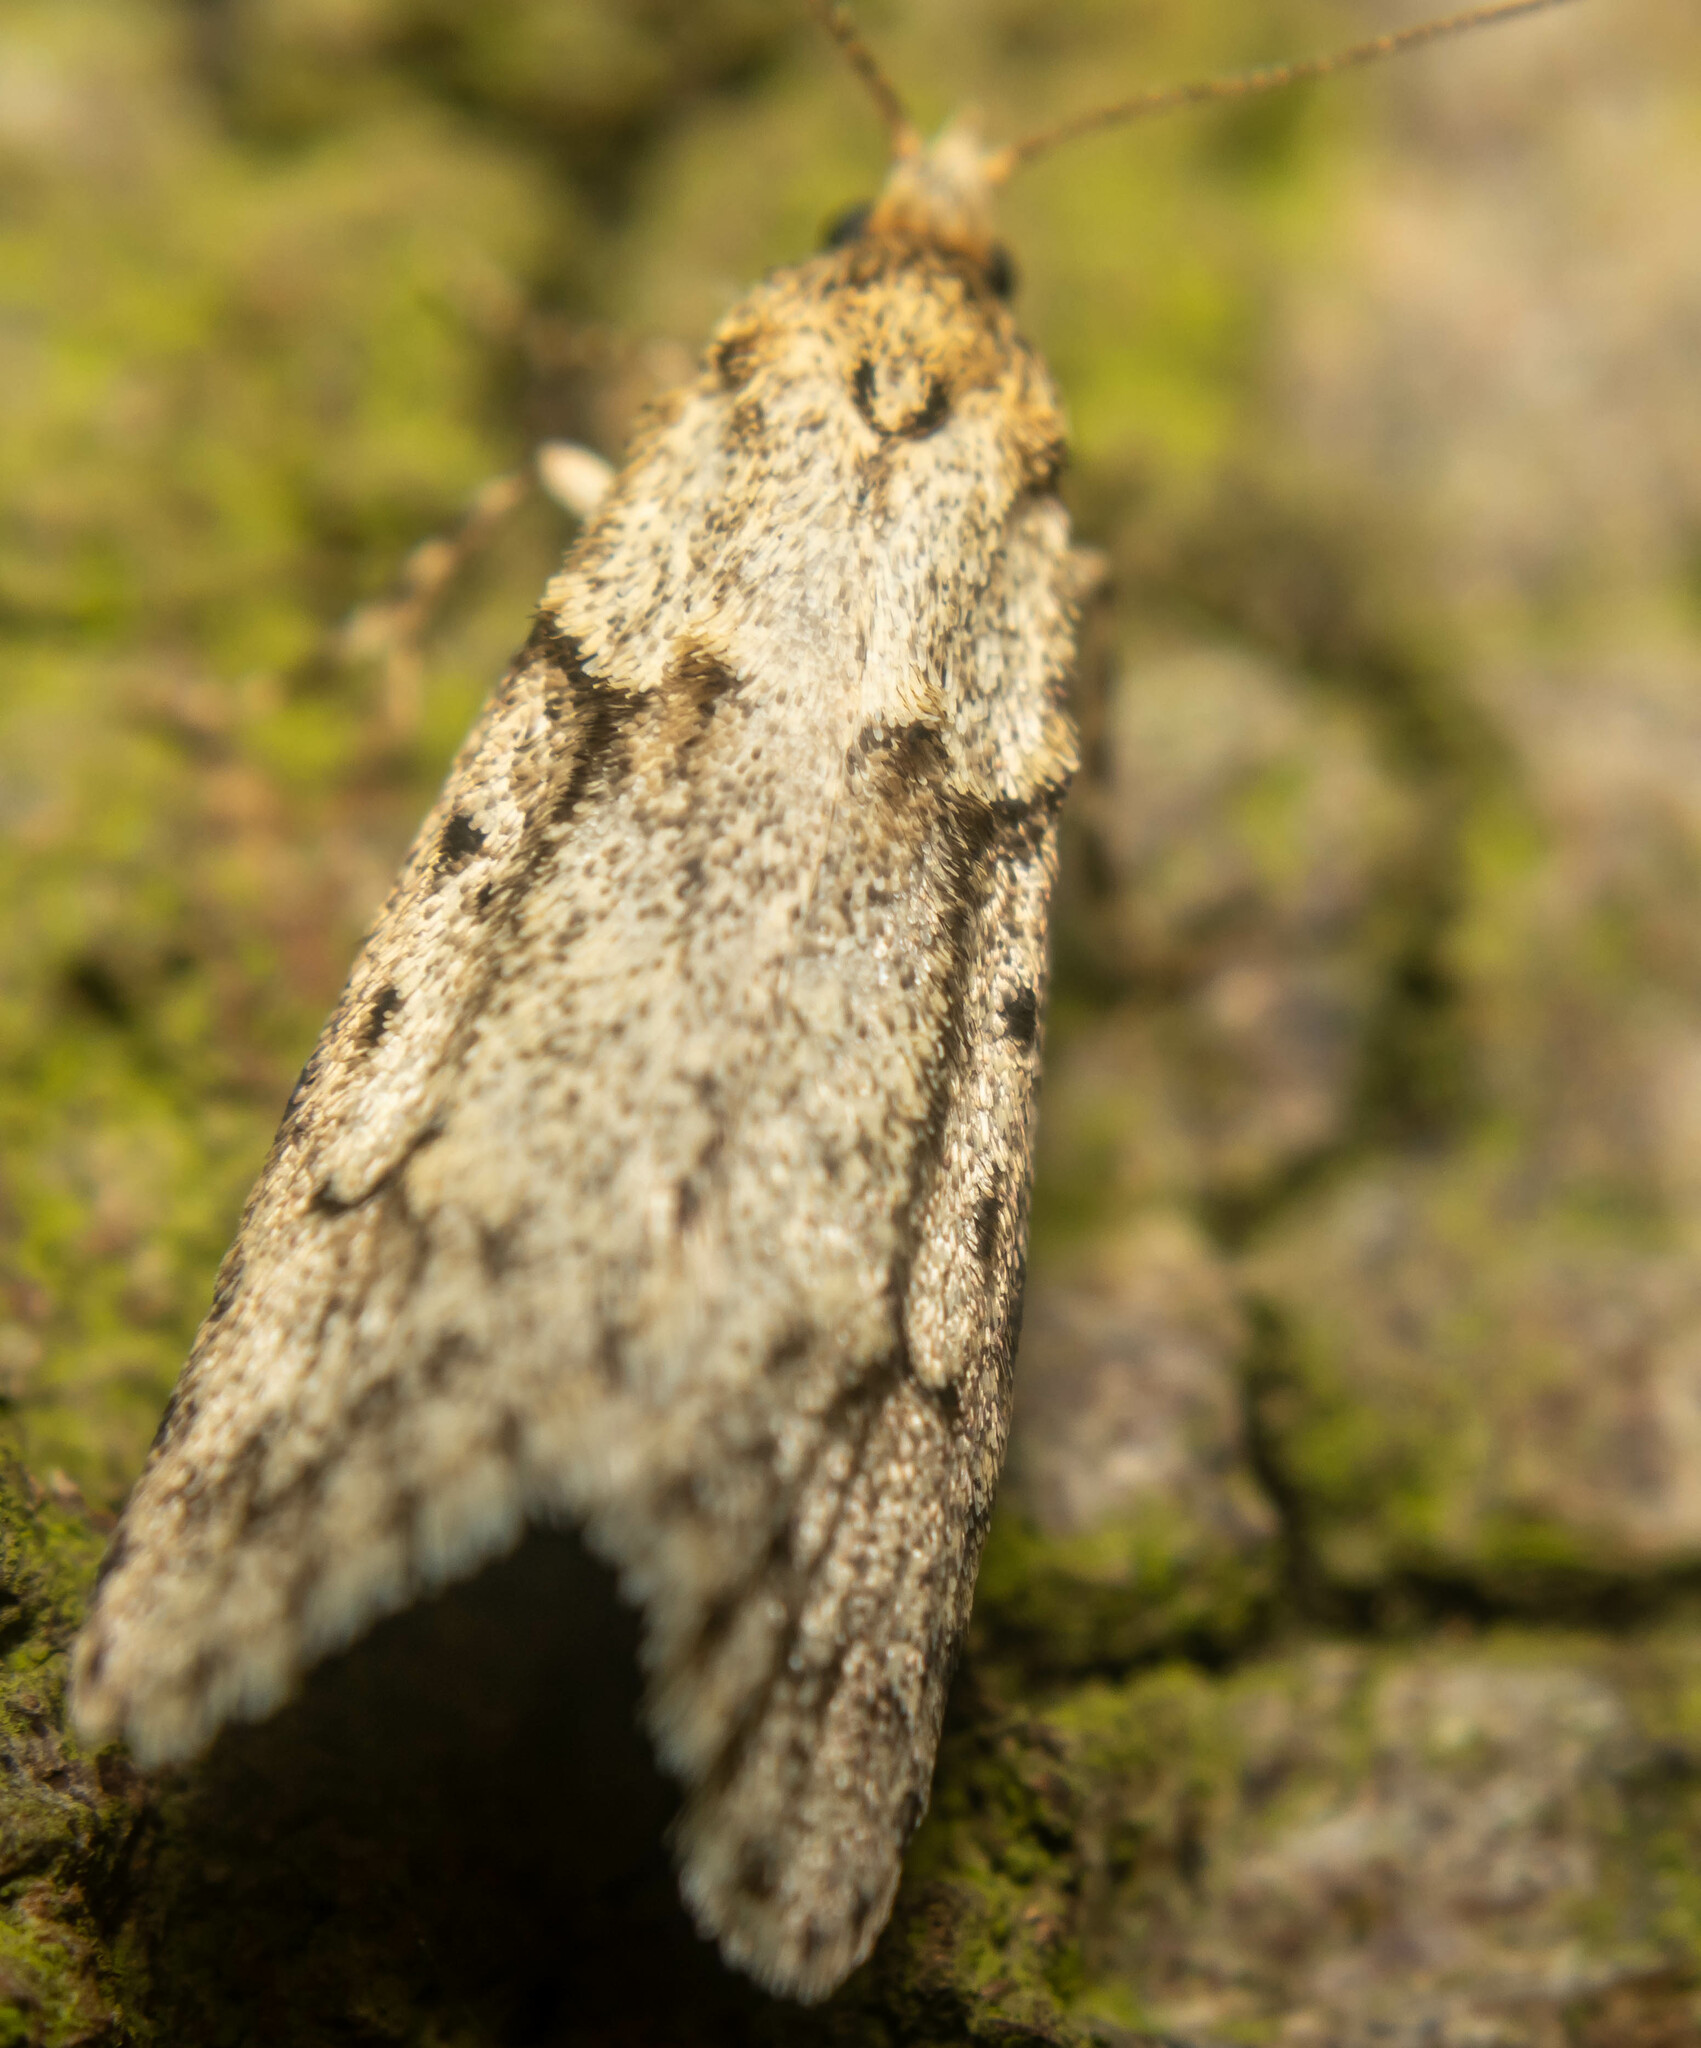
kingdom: Animalia
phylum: Arthropoda
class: Insecta
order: Lepidoptera
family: Lypusidae
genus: Diurnea
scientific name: Diurnea fagella
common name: March tubic
